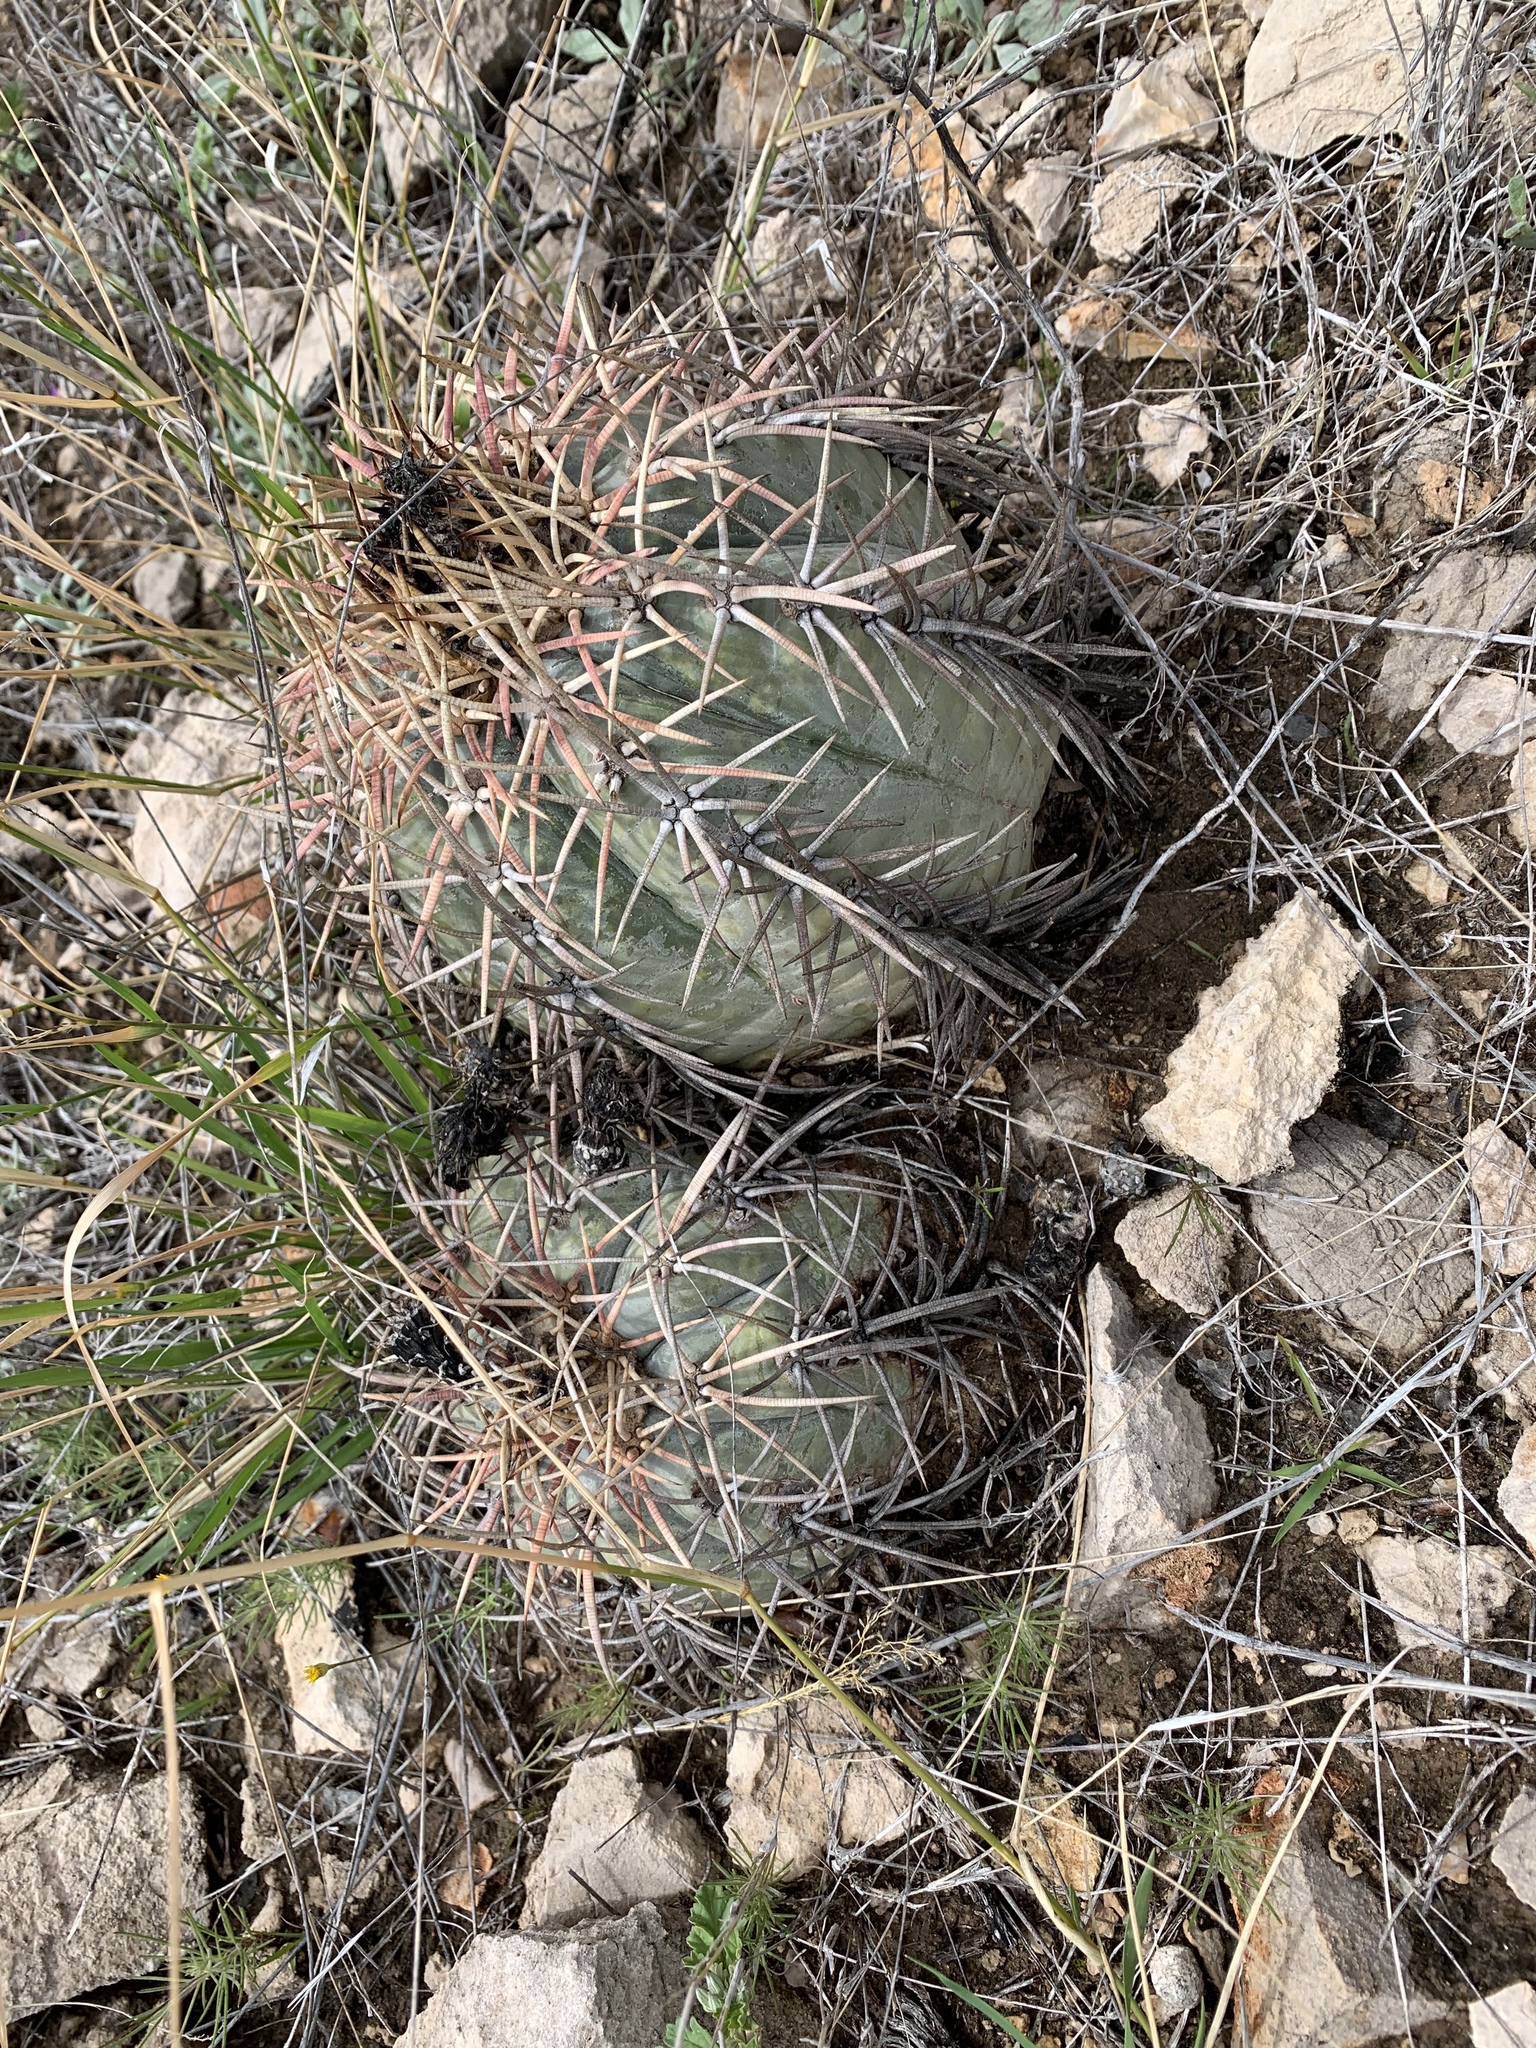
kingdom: Plantae
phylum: Tracheophyta
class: Magnoliopsida
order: Caryophyllales
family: Cactaceae
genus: Echinocactus
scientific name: Echinocactus horizonthalonius
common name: Devilshead
